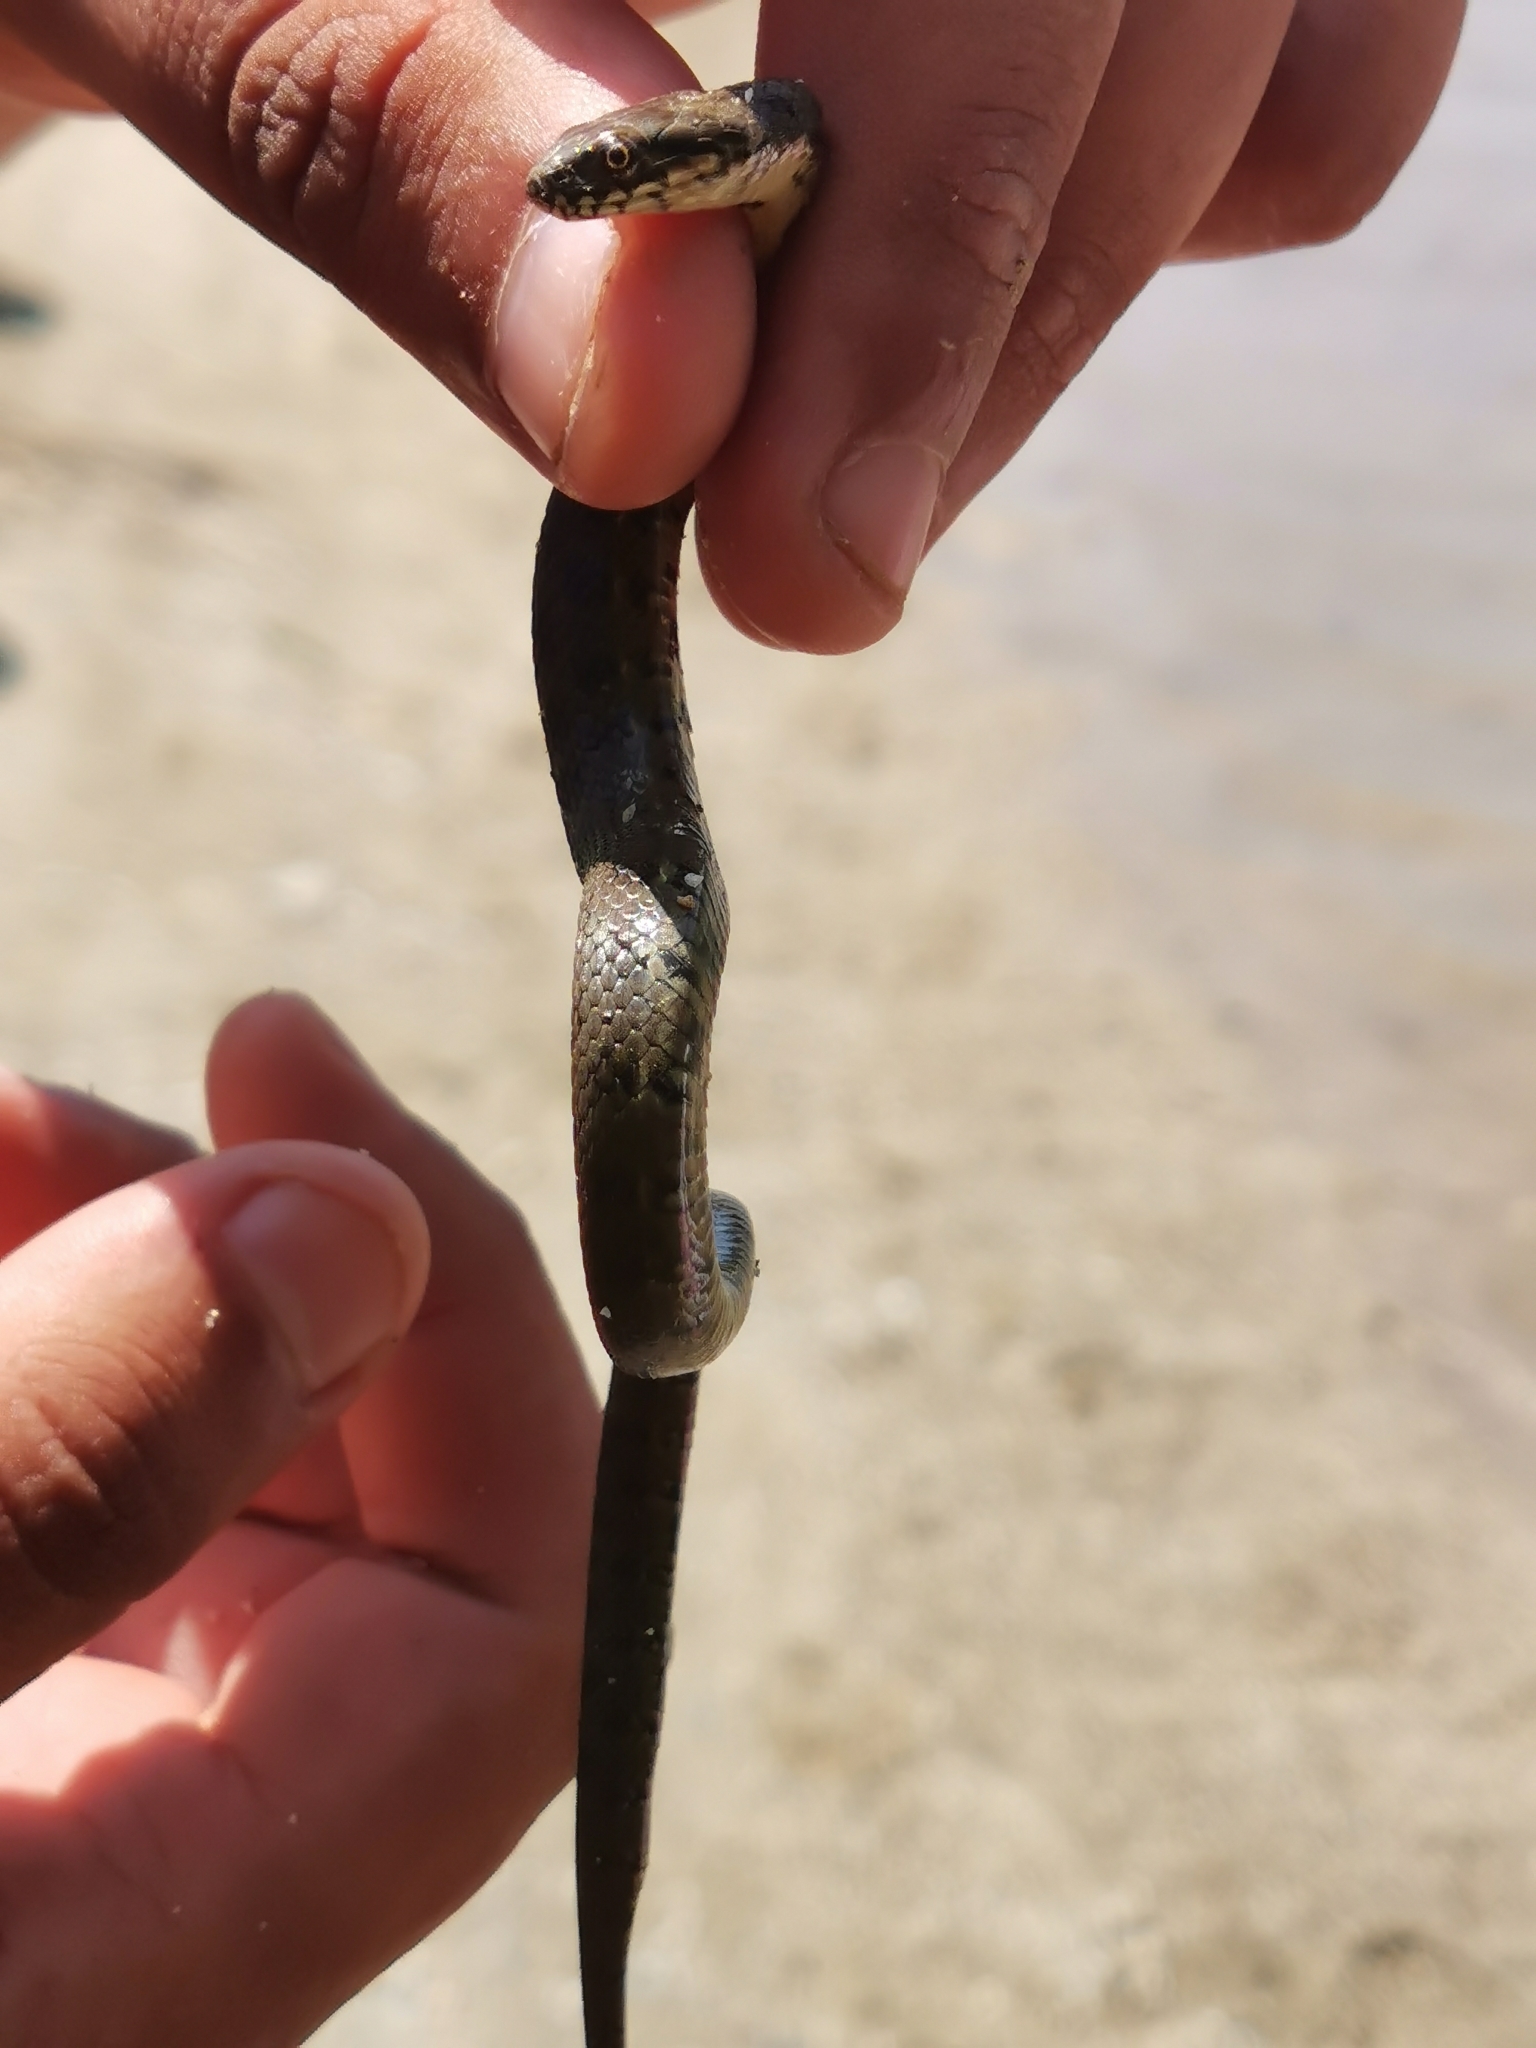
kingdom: Animalia
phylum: Chordata
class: Squamata
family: Colubridae
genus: Natrix
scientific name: Natrix maura
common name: Viperine water snake
